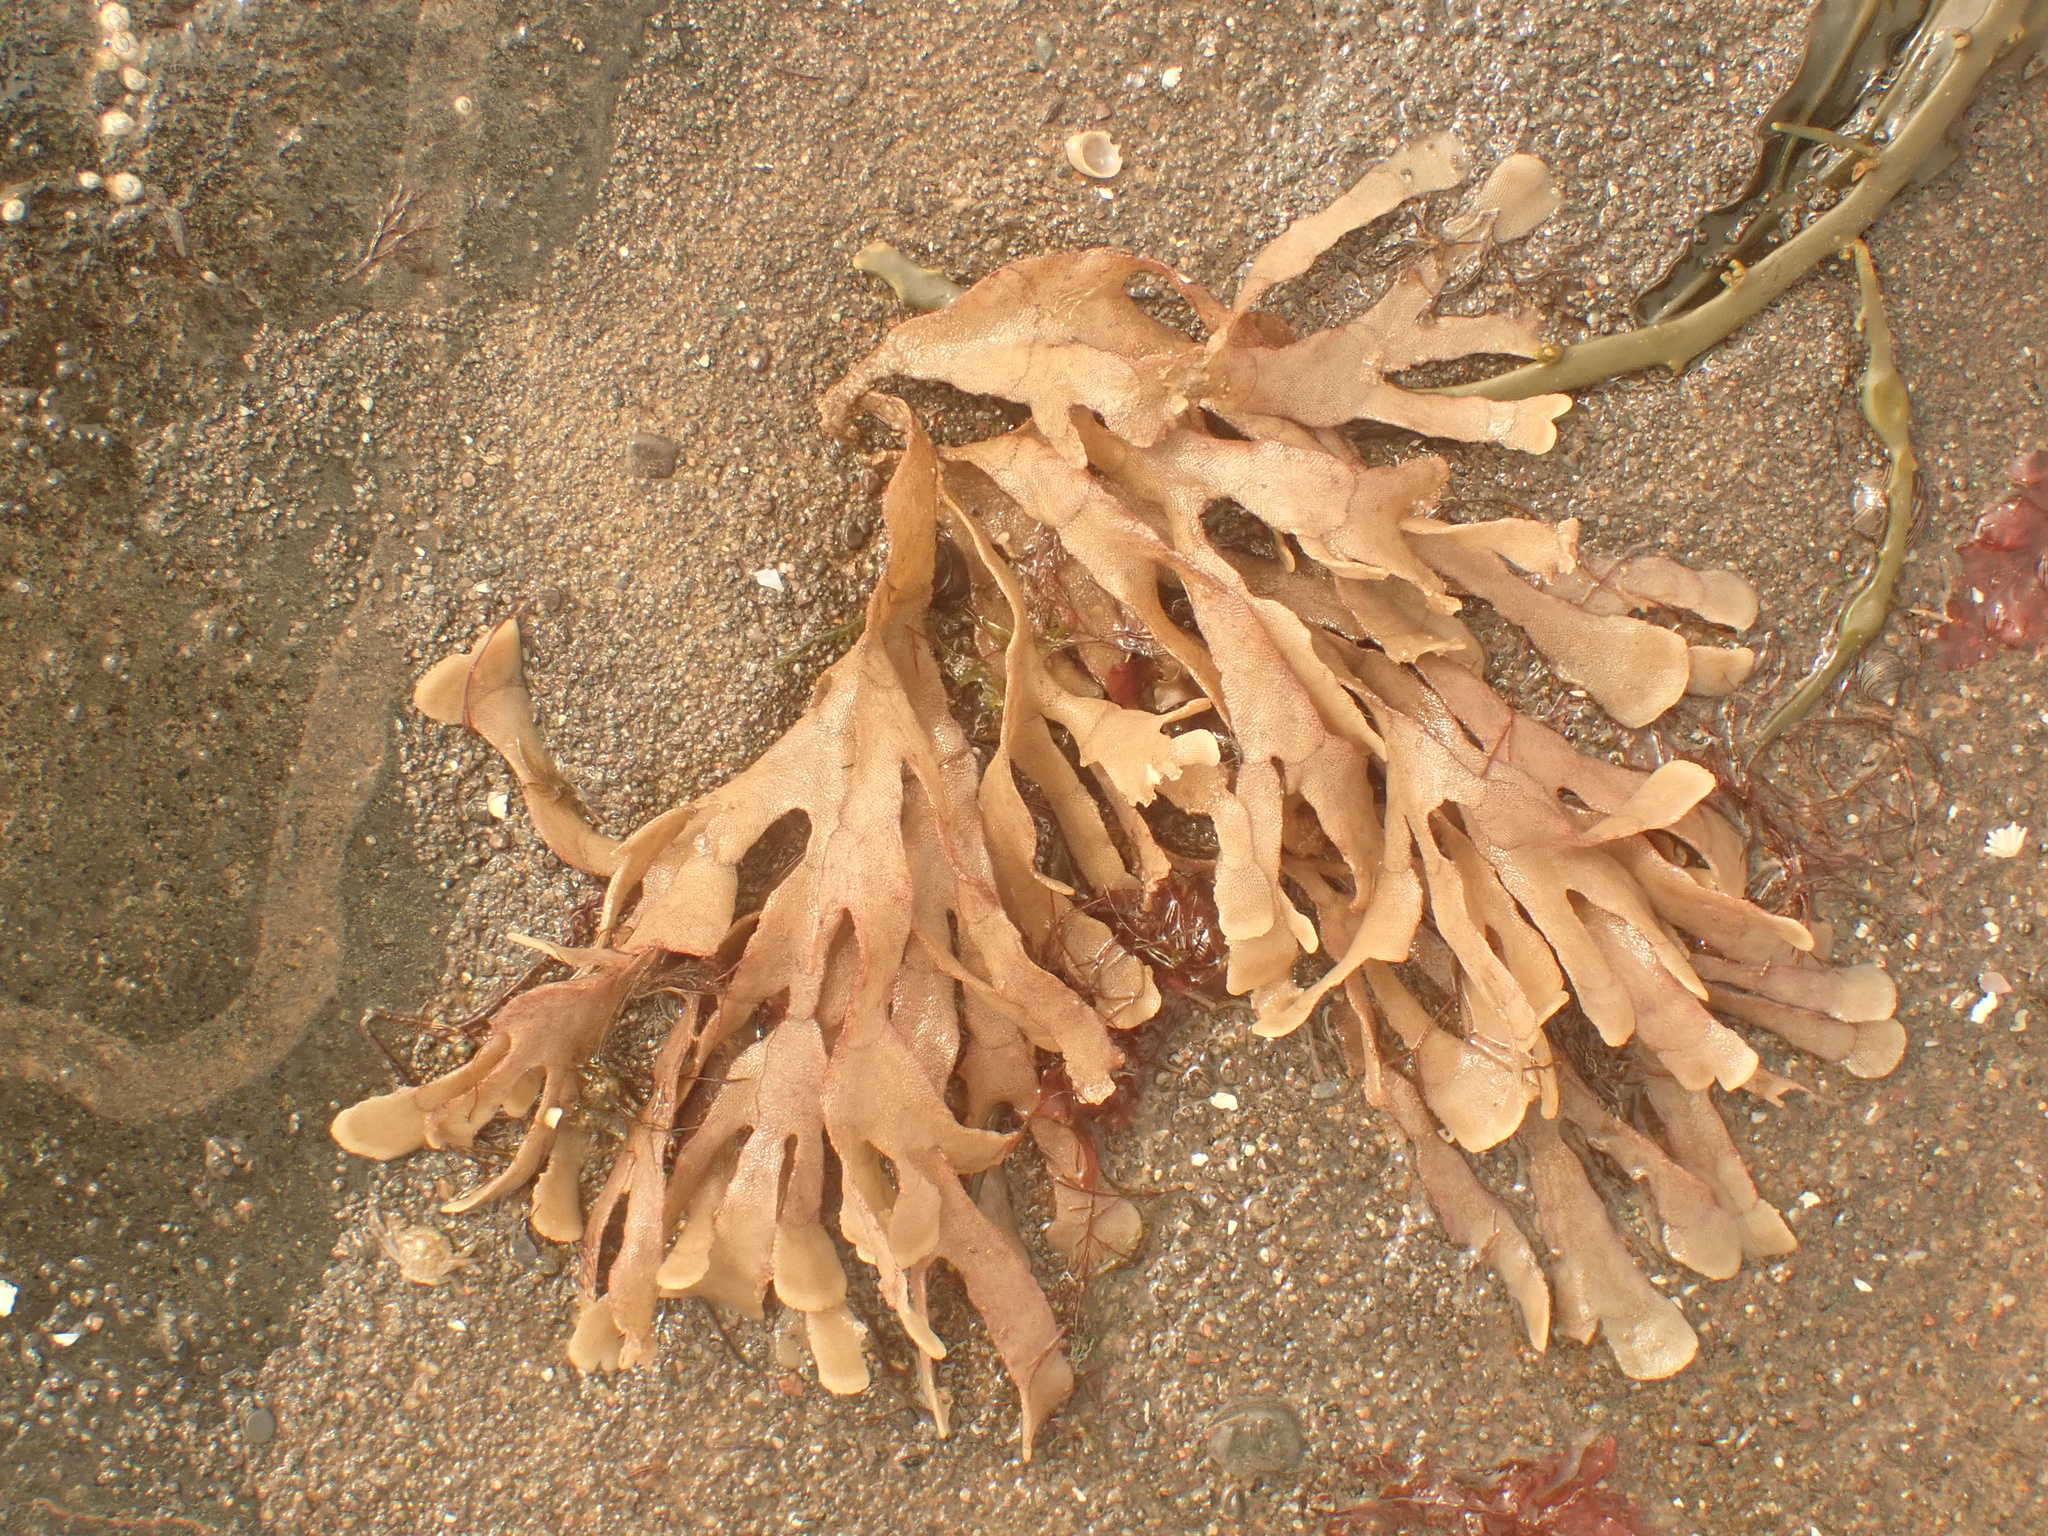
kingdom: Animalia
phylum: Bryozoa
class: Gymnolaemata
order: Cheilostomatida
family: Flustridae
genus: Flustra
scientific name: Flustra foliacea
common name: Hornwrack
